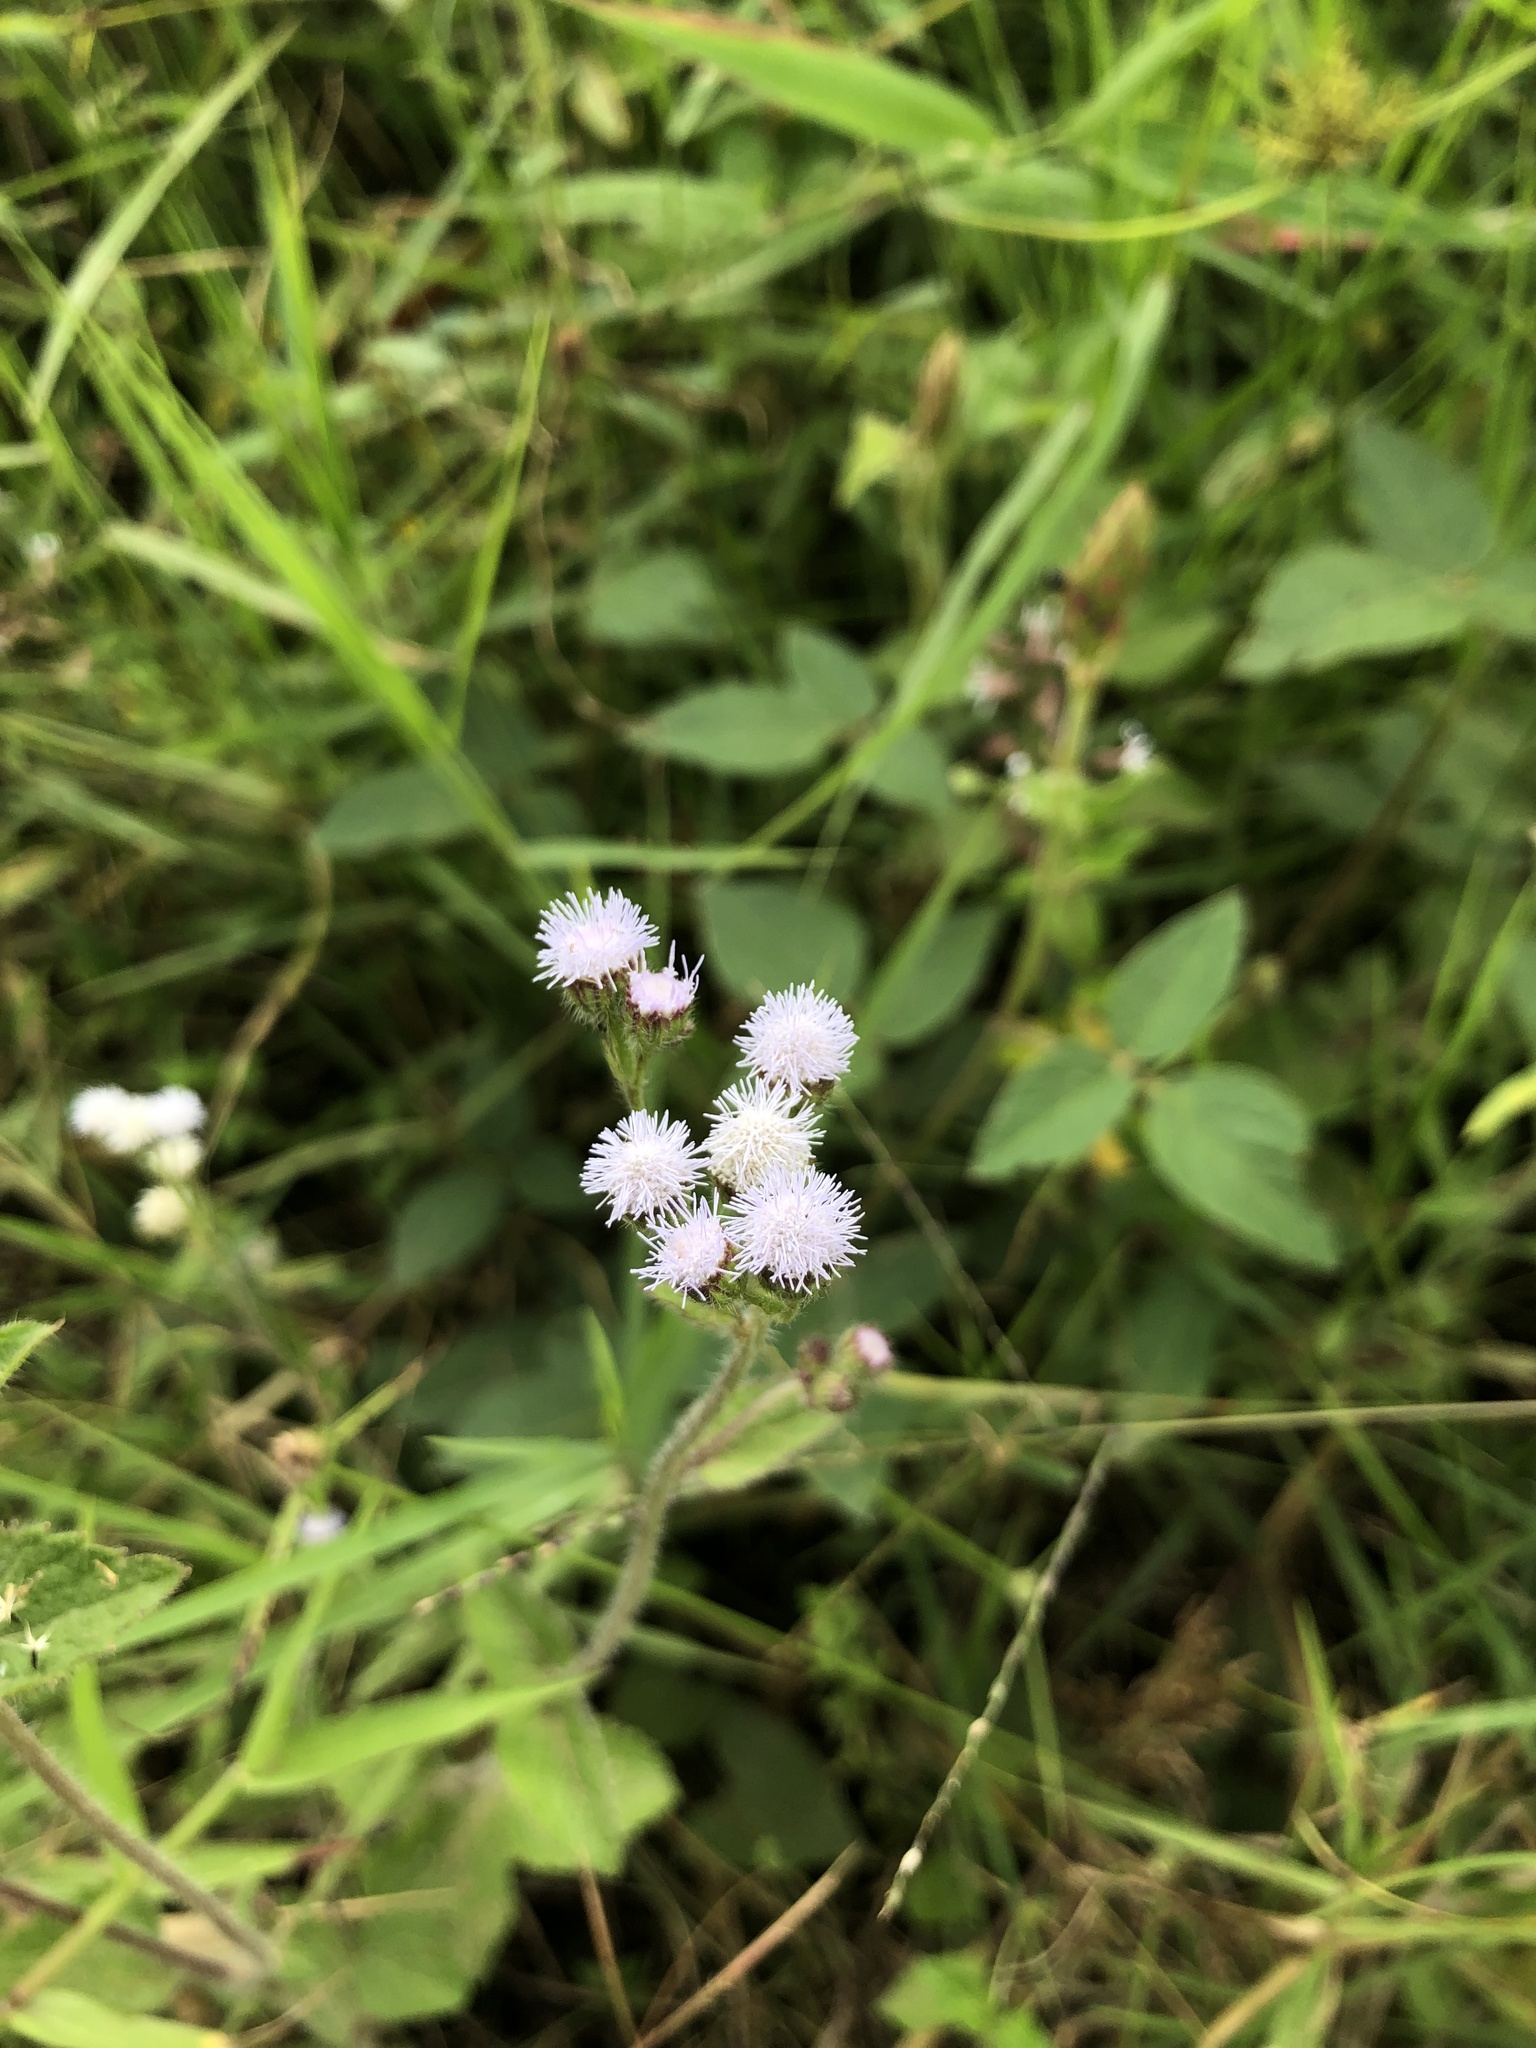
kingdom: Plantae
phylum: Tracheophyta
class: Magnoliopsida
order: Asterales
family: Asteraceae
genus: Ageratum
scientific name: Ageratum conyzoides
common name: Tropical whiteweed
